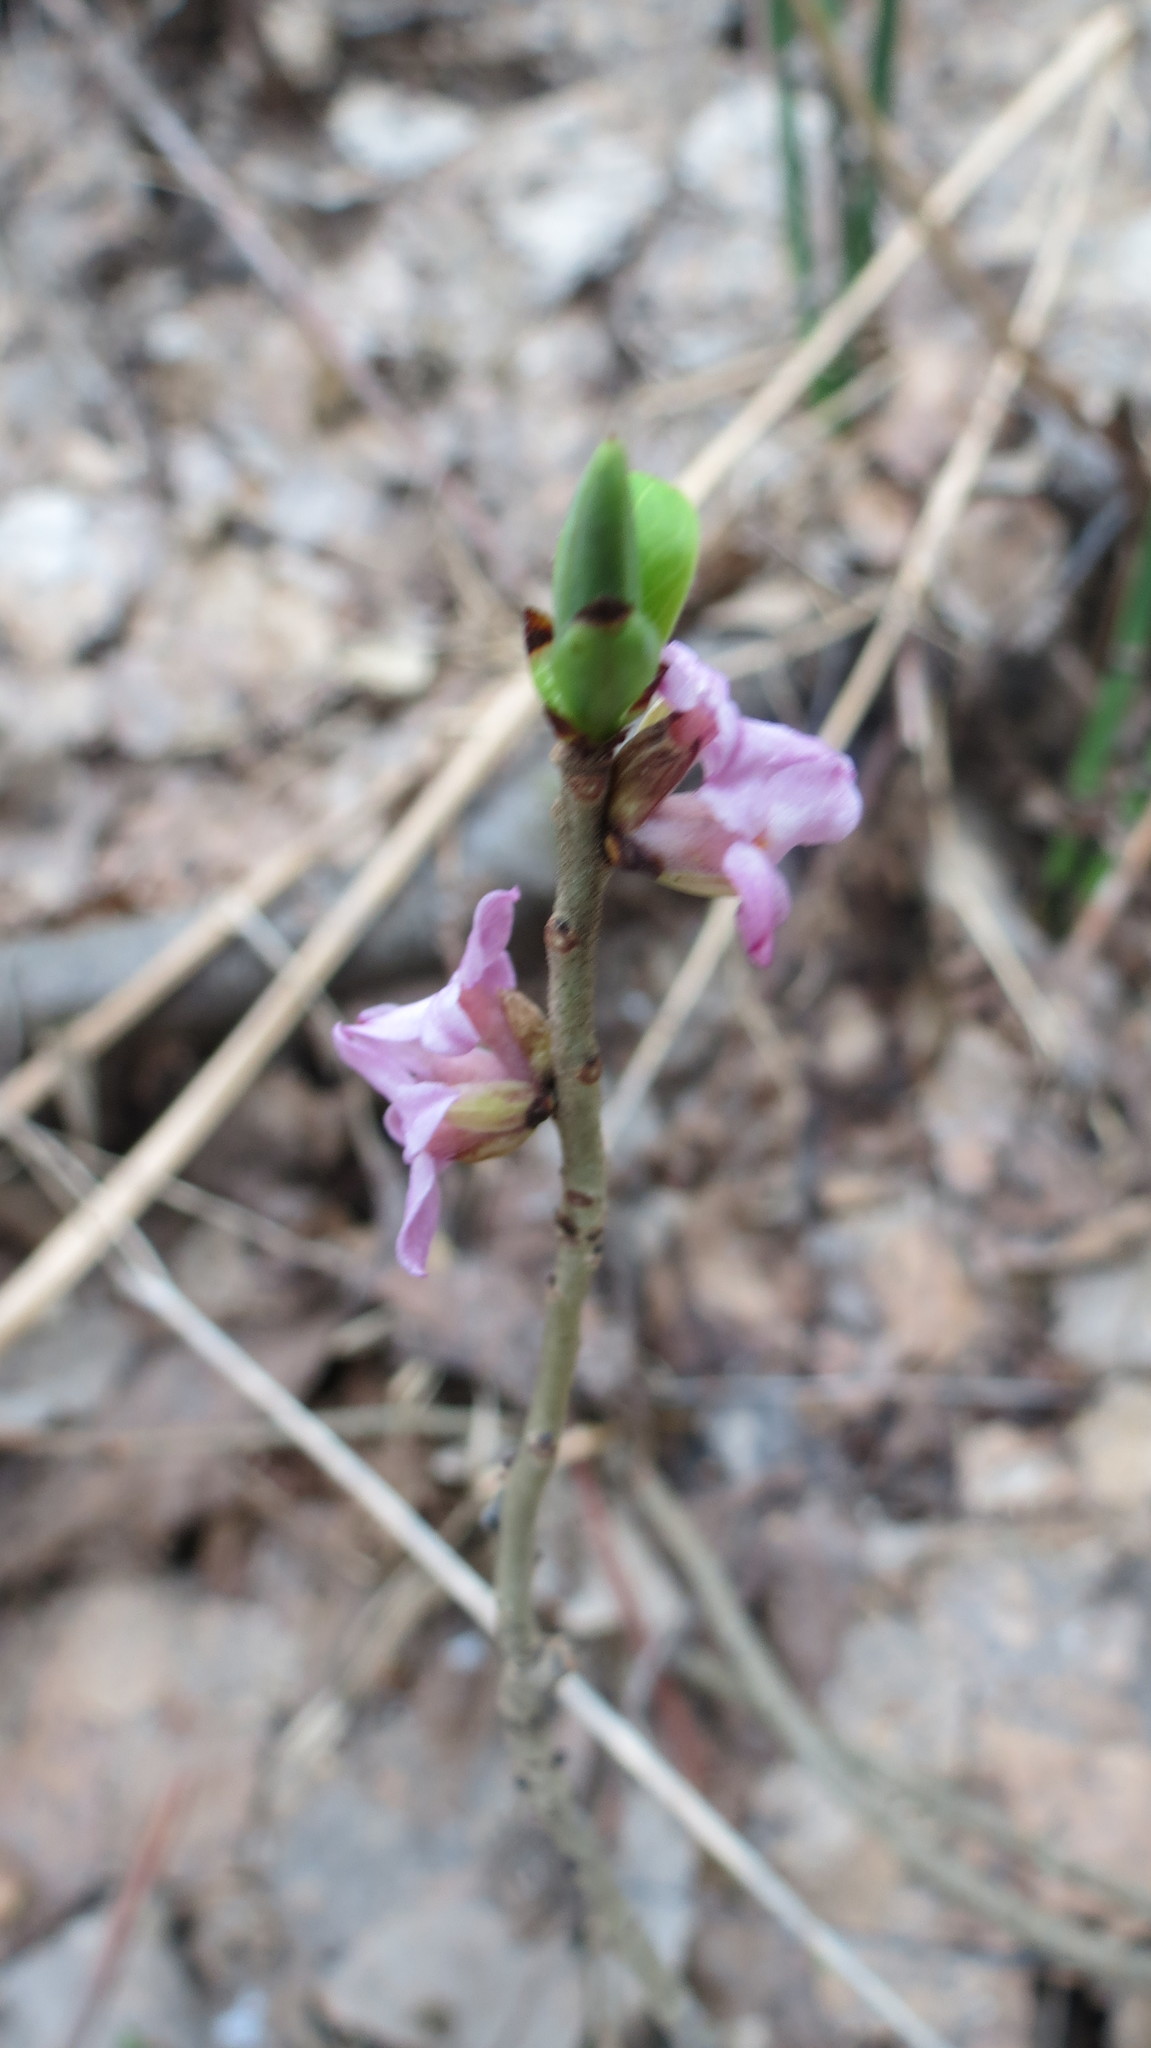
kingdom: Plantae
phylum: Tracheophyta
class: Magnoliopsida
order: Malvales
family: Thymelaeaceae
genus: Daphne
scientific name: Daphne mezereum
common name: Mezereon
